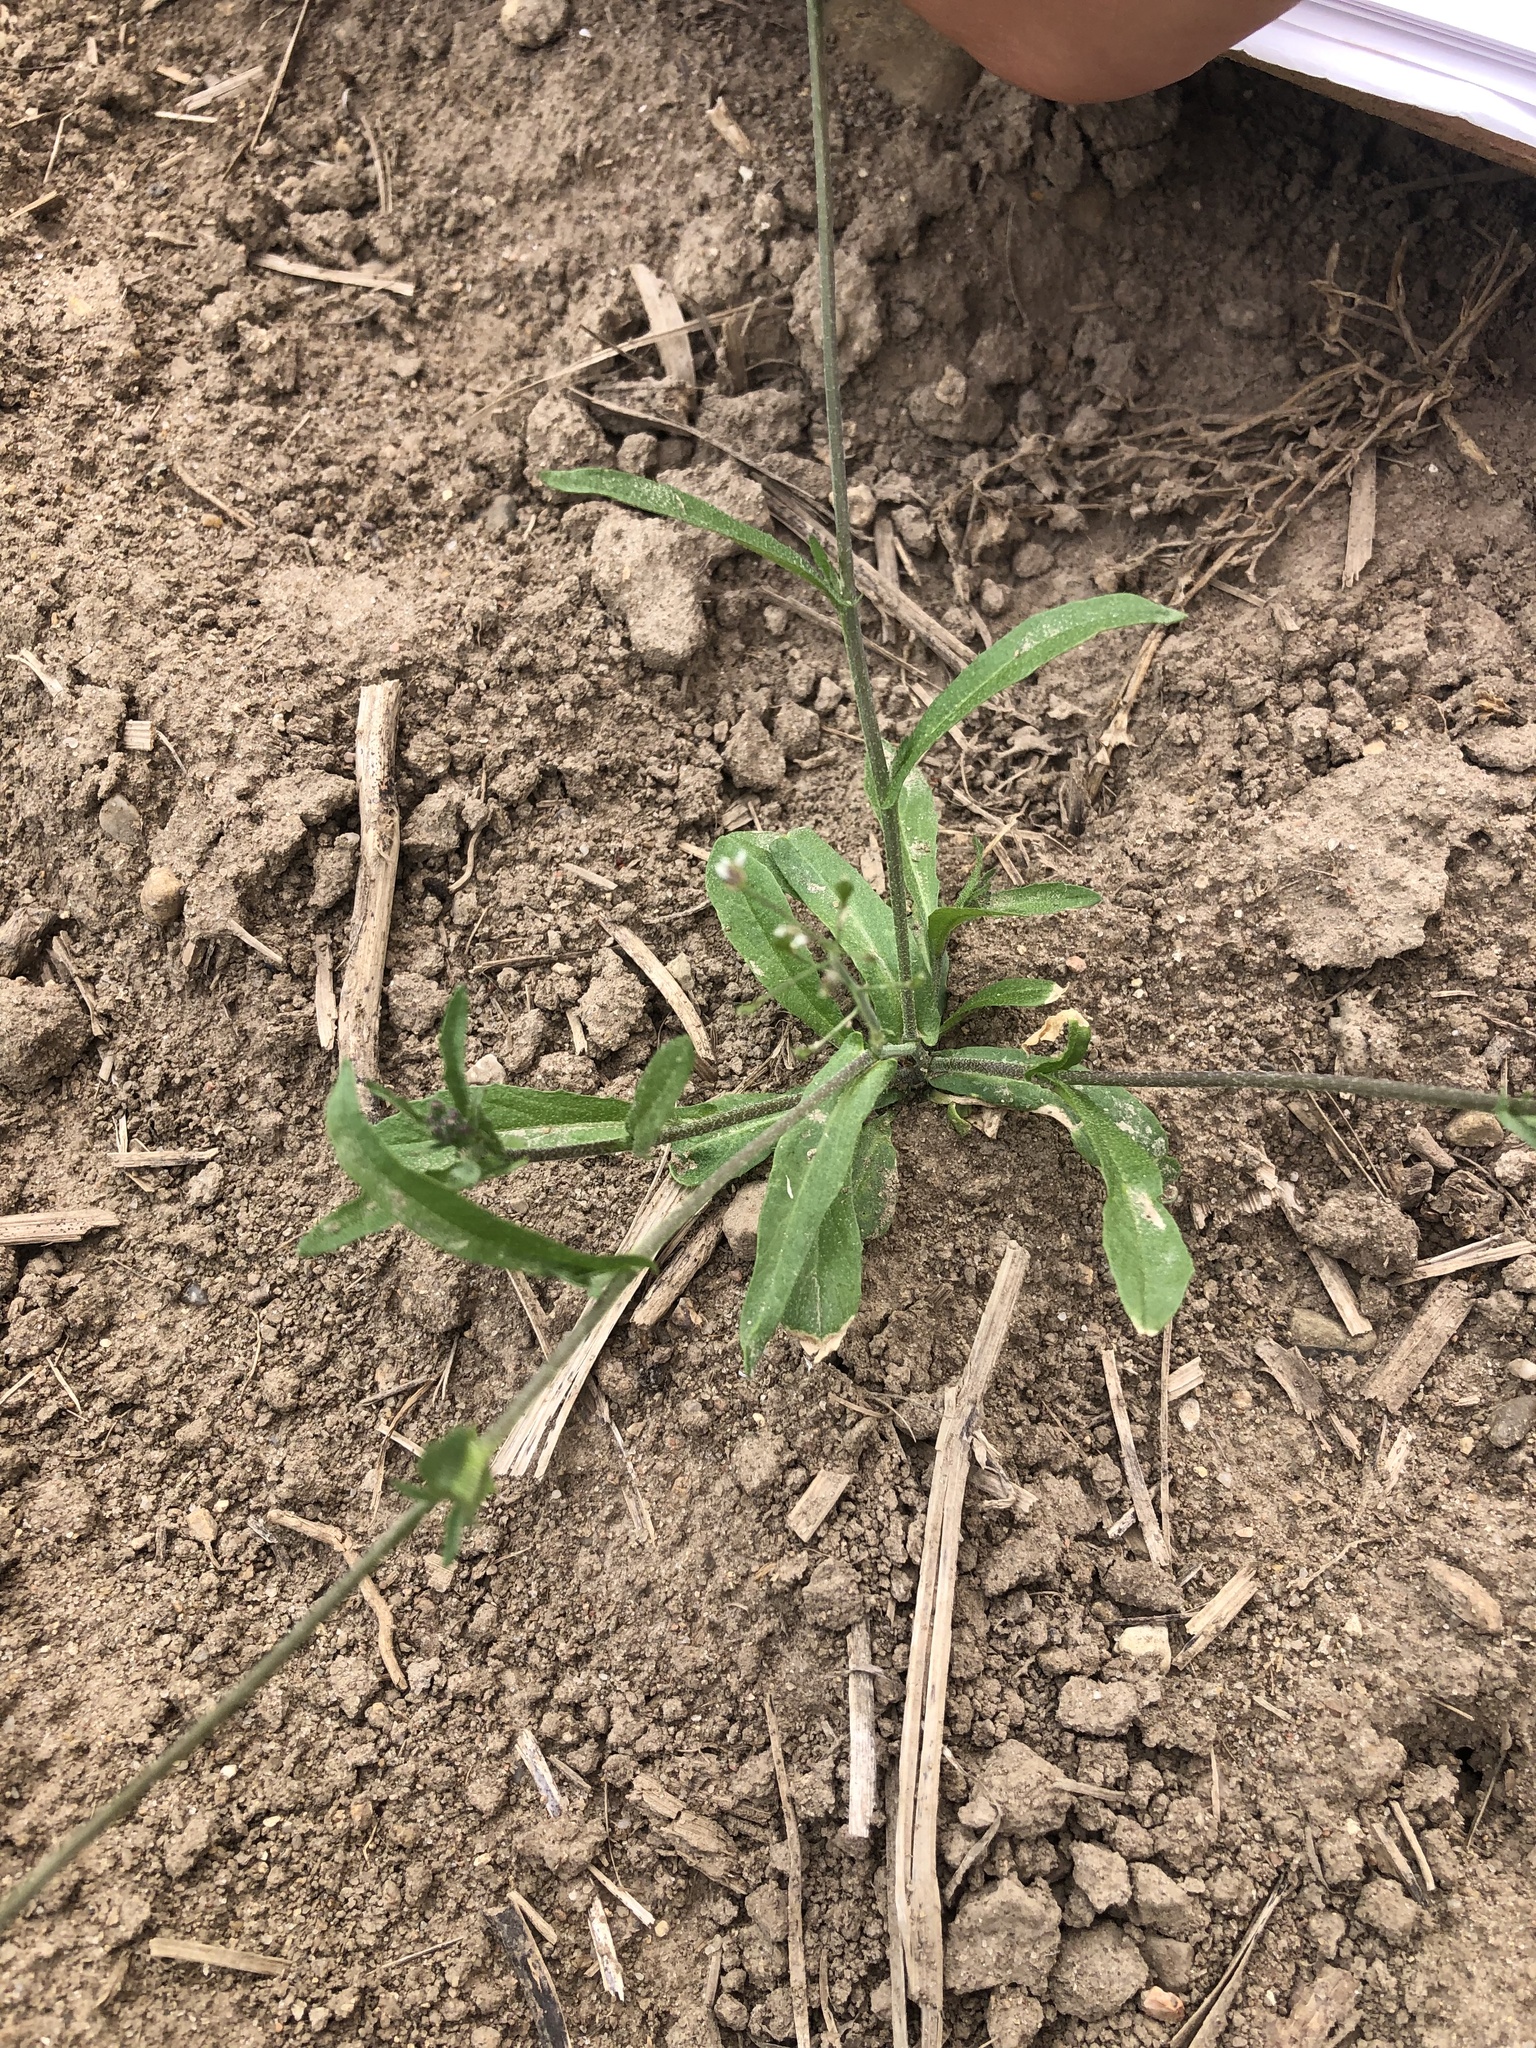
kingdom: Plantae
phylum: Tracheophyta
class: Magnoliopsida
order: Brassicales
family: Brassicaceae
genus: Capsella
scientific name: Capsella bursa-pastoris
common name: Shepherd's purse
